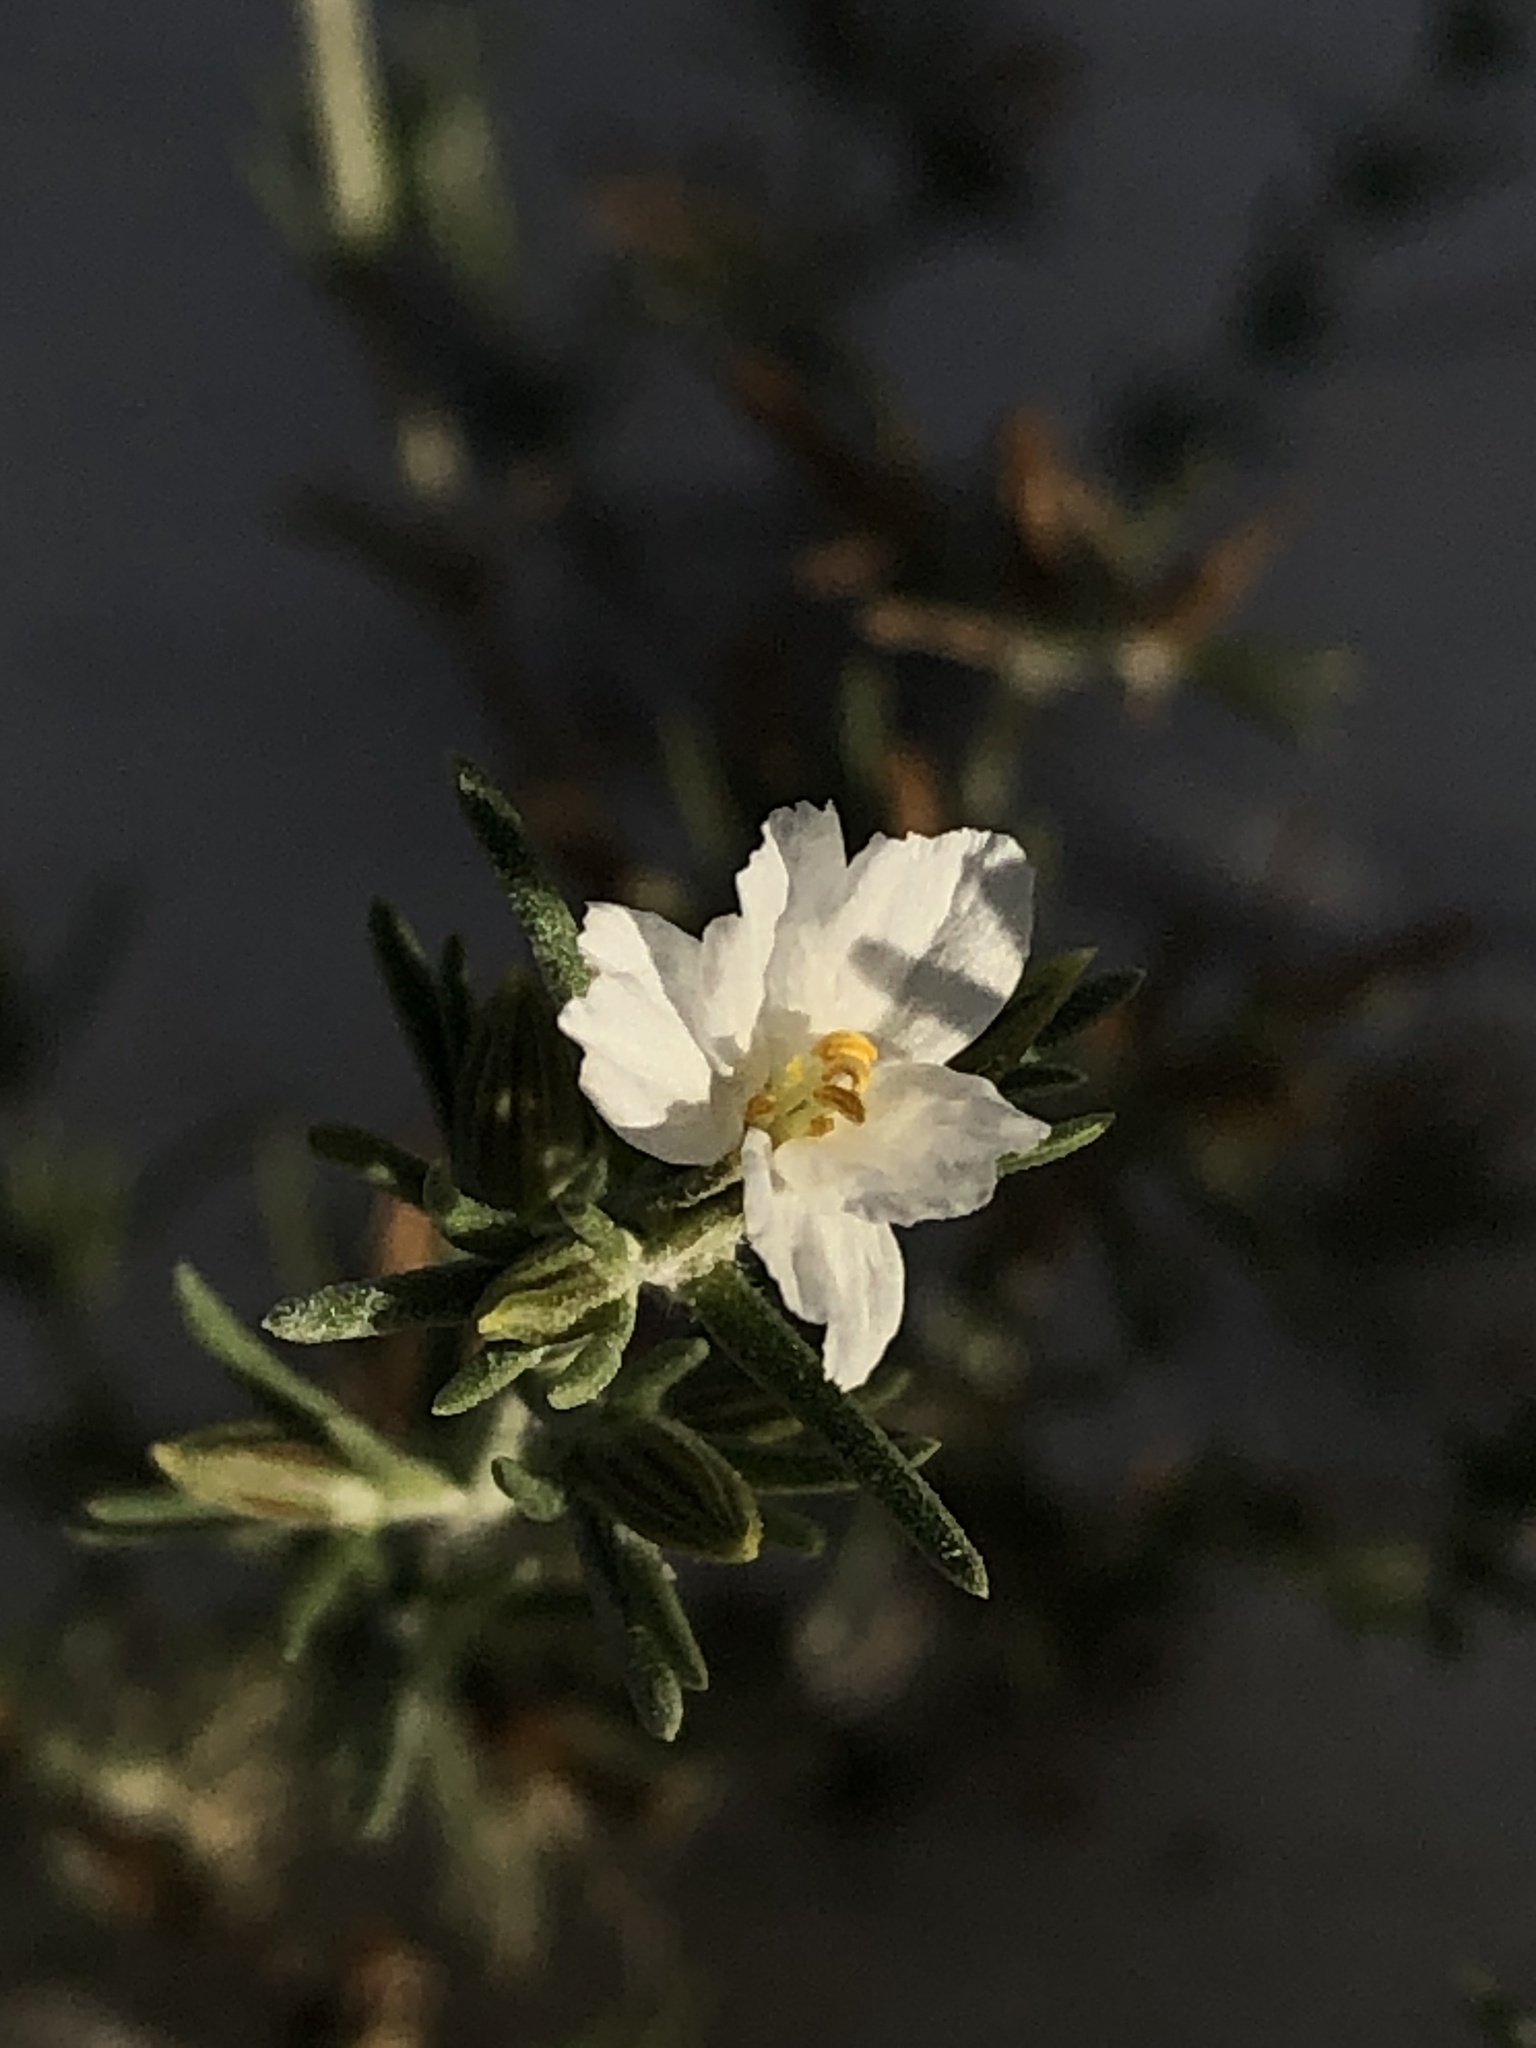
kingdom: Plantae
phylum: Tracheophyta
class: Magnoliopsida
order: Caryophyllales
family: Frankeniaceae
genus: Frankenia
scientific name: Frankenia jamesii
